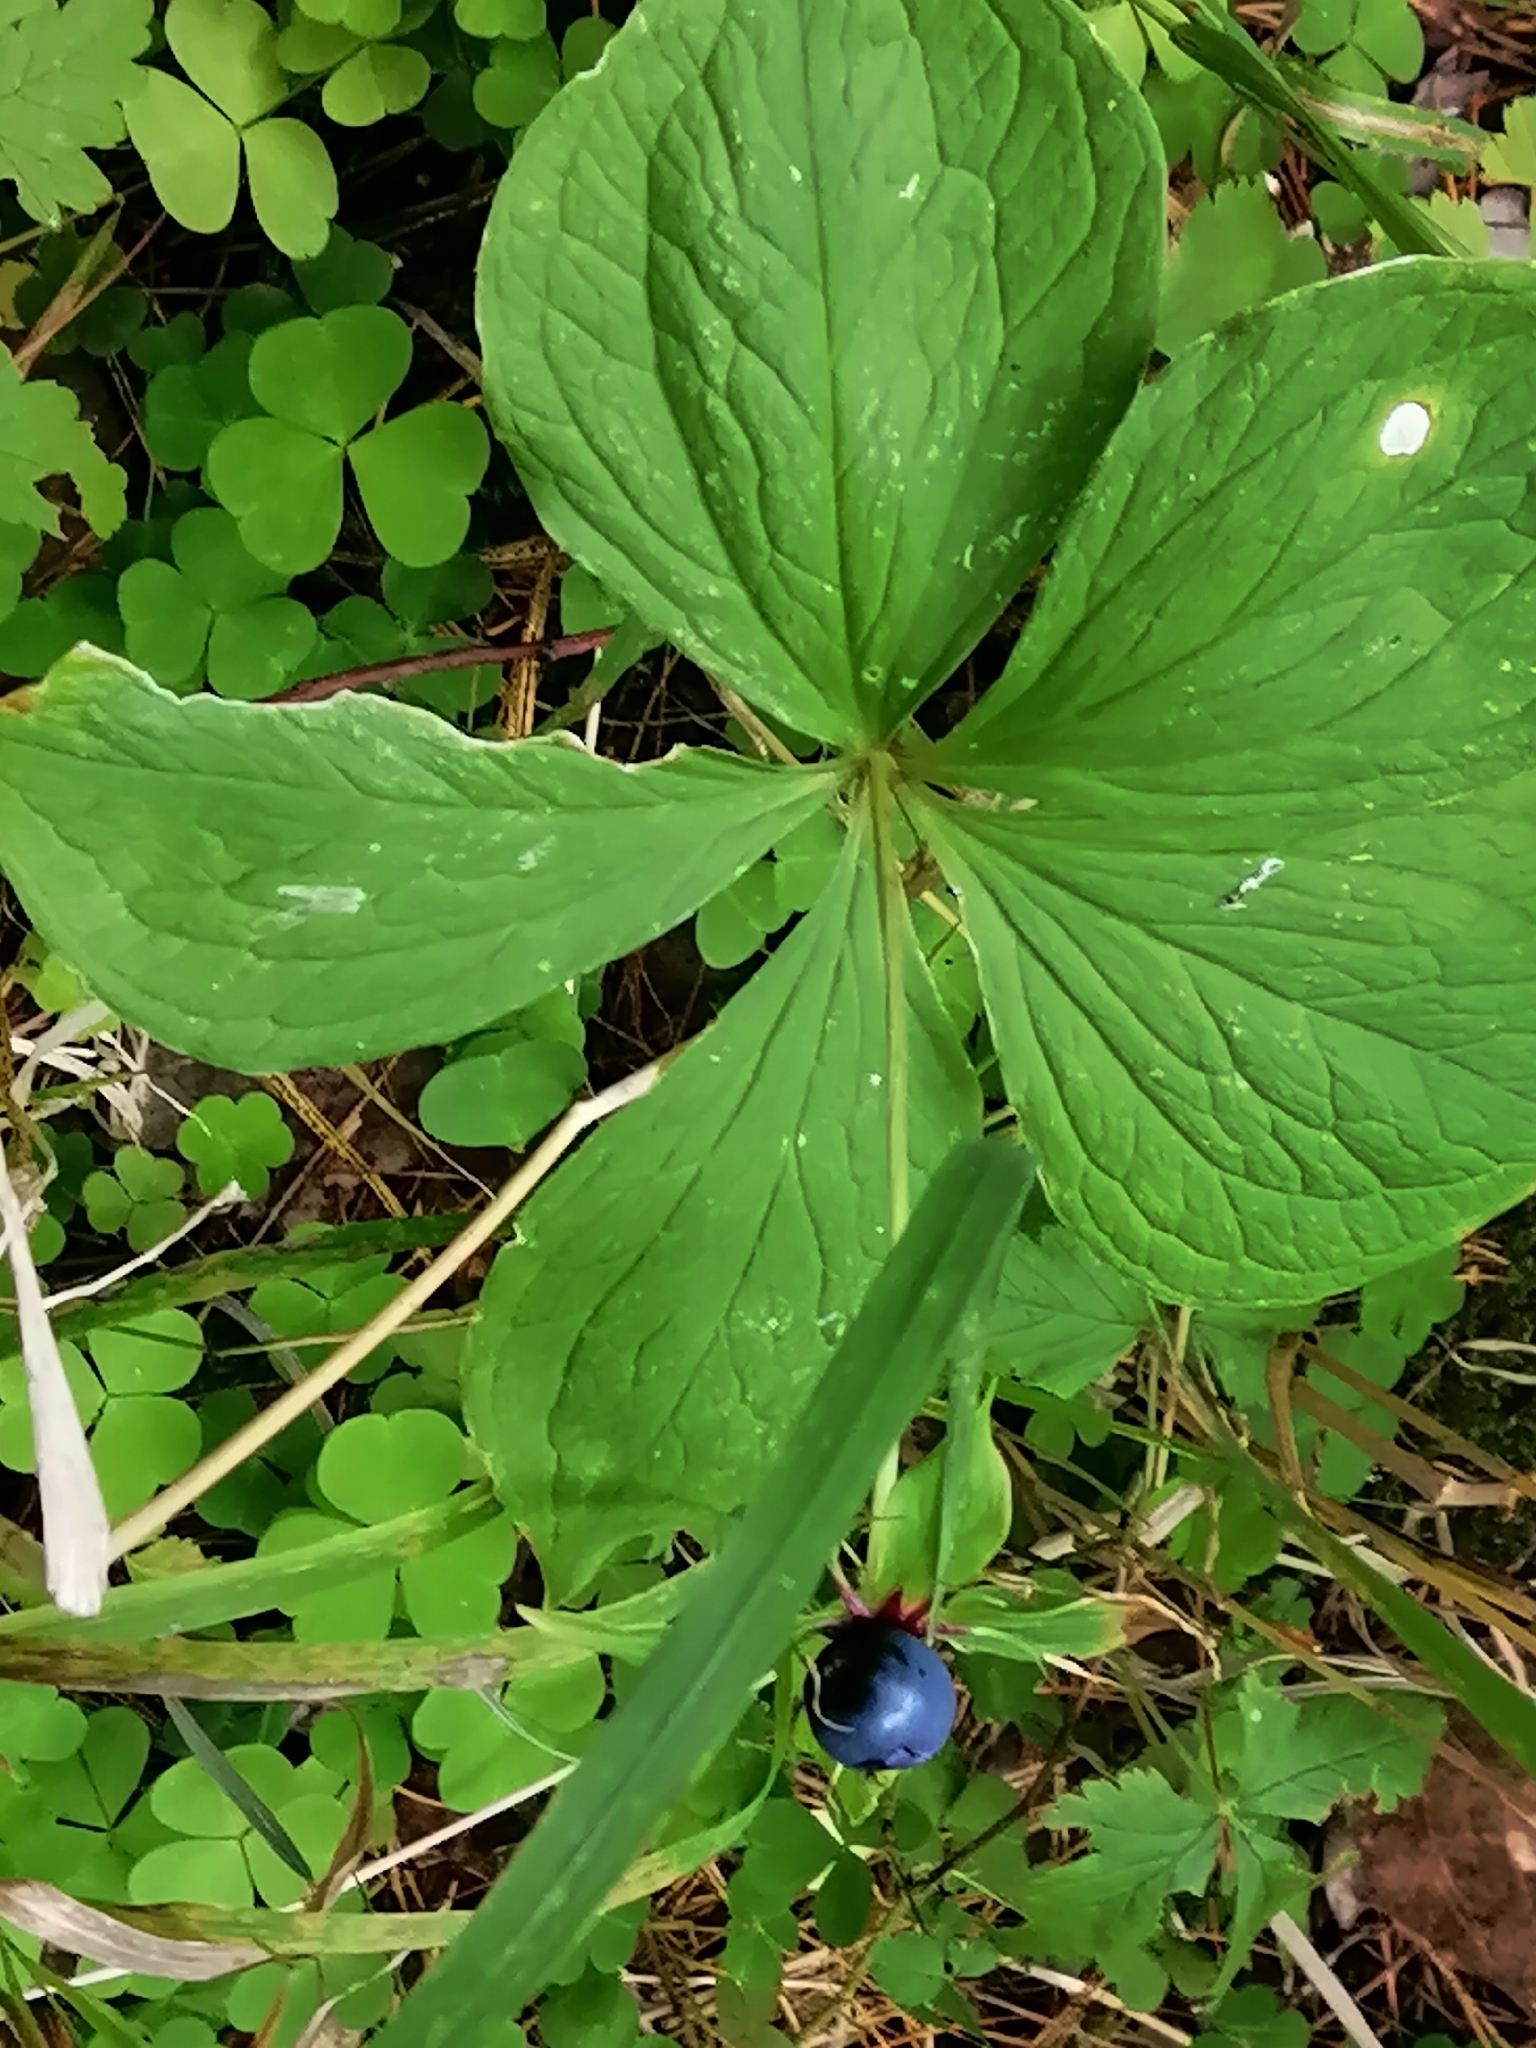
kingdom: Plantae
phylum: Tracheophyta
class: Liliopsida
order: Liliales
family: Melanthiaceae
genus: Paris
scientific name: Paris quadrifolia
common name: Herb-paris
